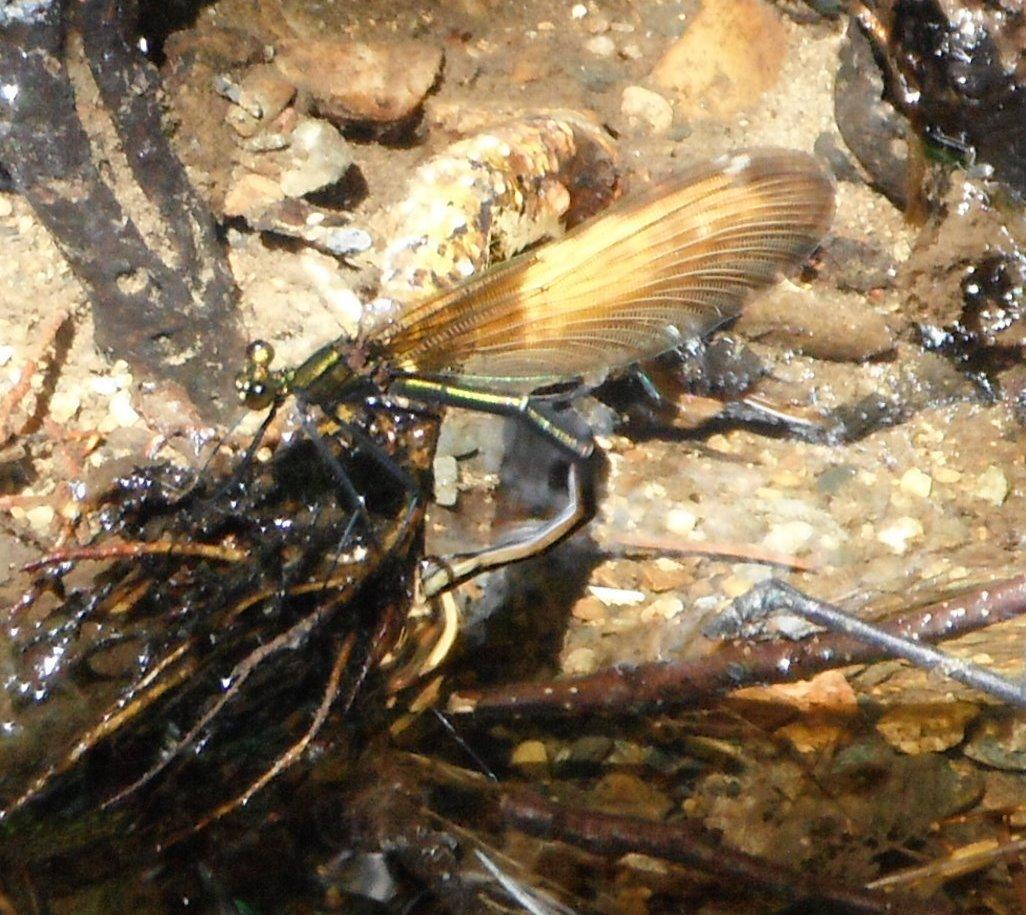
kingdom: Animalia
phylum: Arthropoda
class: Insecta
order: Odonata
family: Calopterygidae
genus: Calopteryx
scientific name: Calopteryx virgo
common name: Beautiful demoiselle
